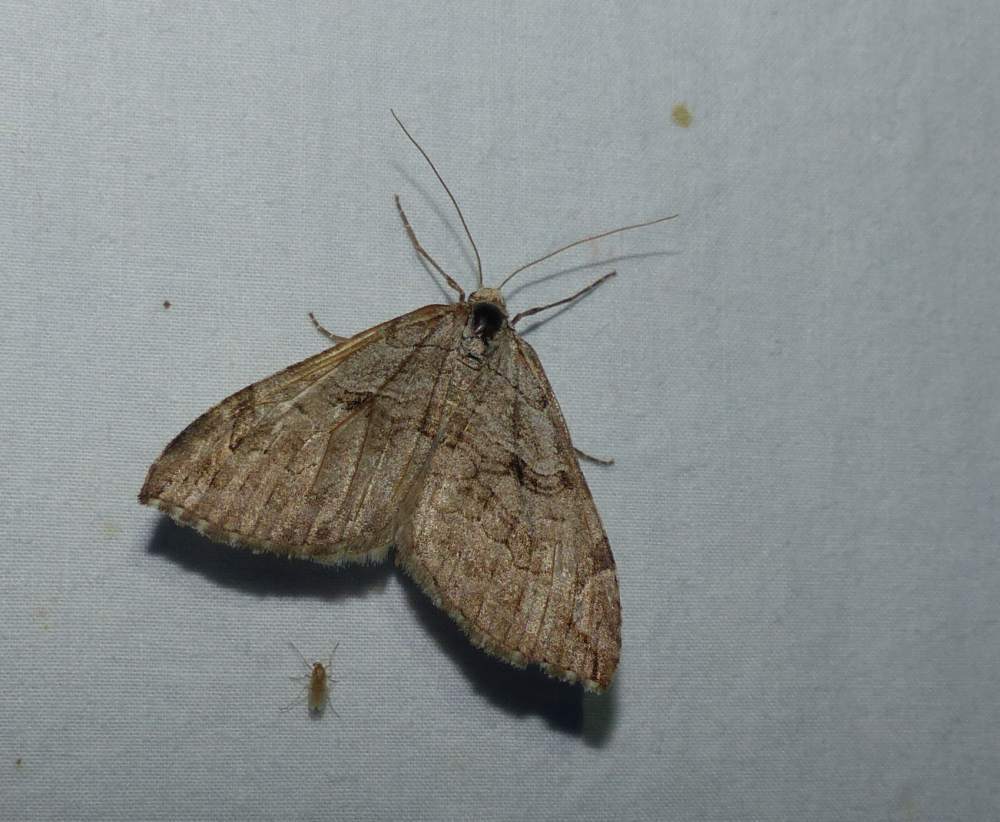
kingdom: Animalia
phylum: Arthropoda
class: Insecta
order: Lepidoptera
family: Geometridae
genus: Aplocera
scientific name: Aplocera plagiata
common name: Treble-bar
